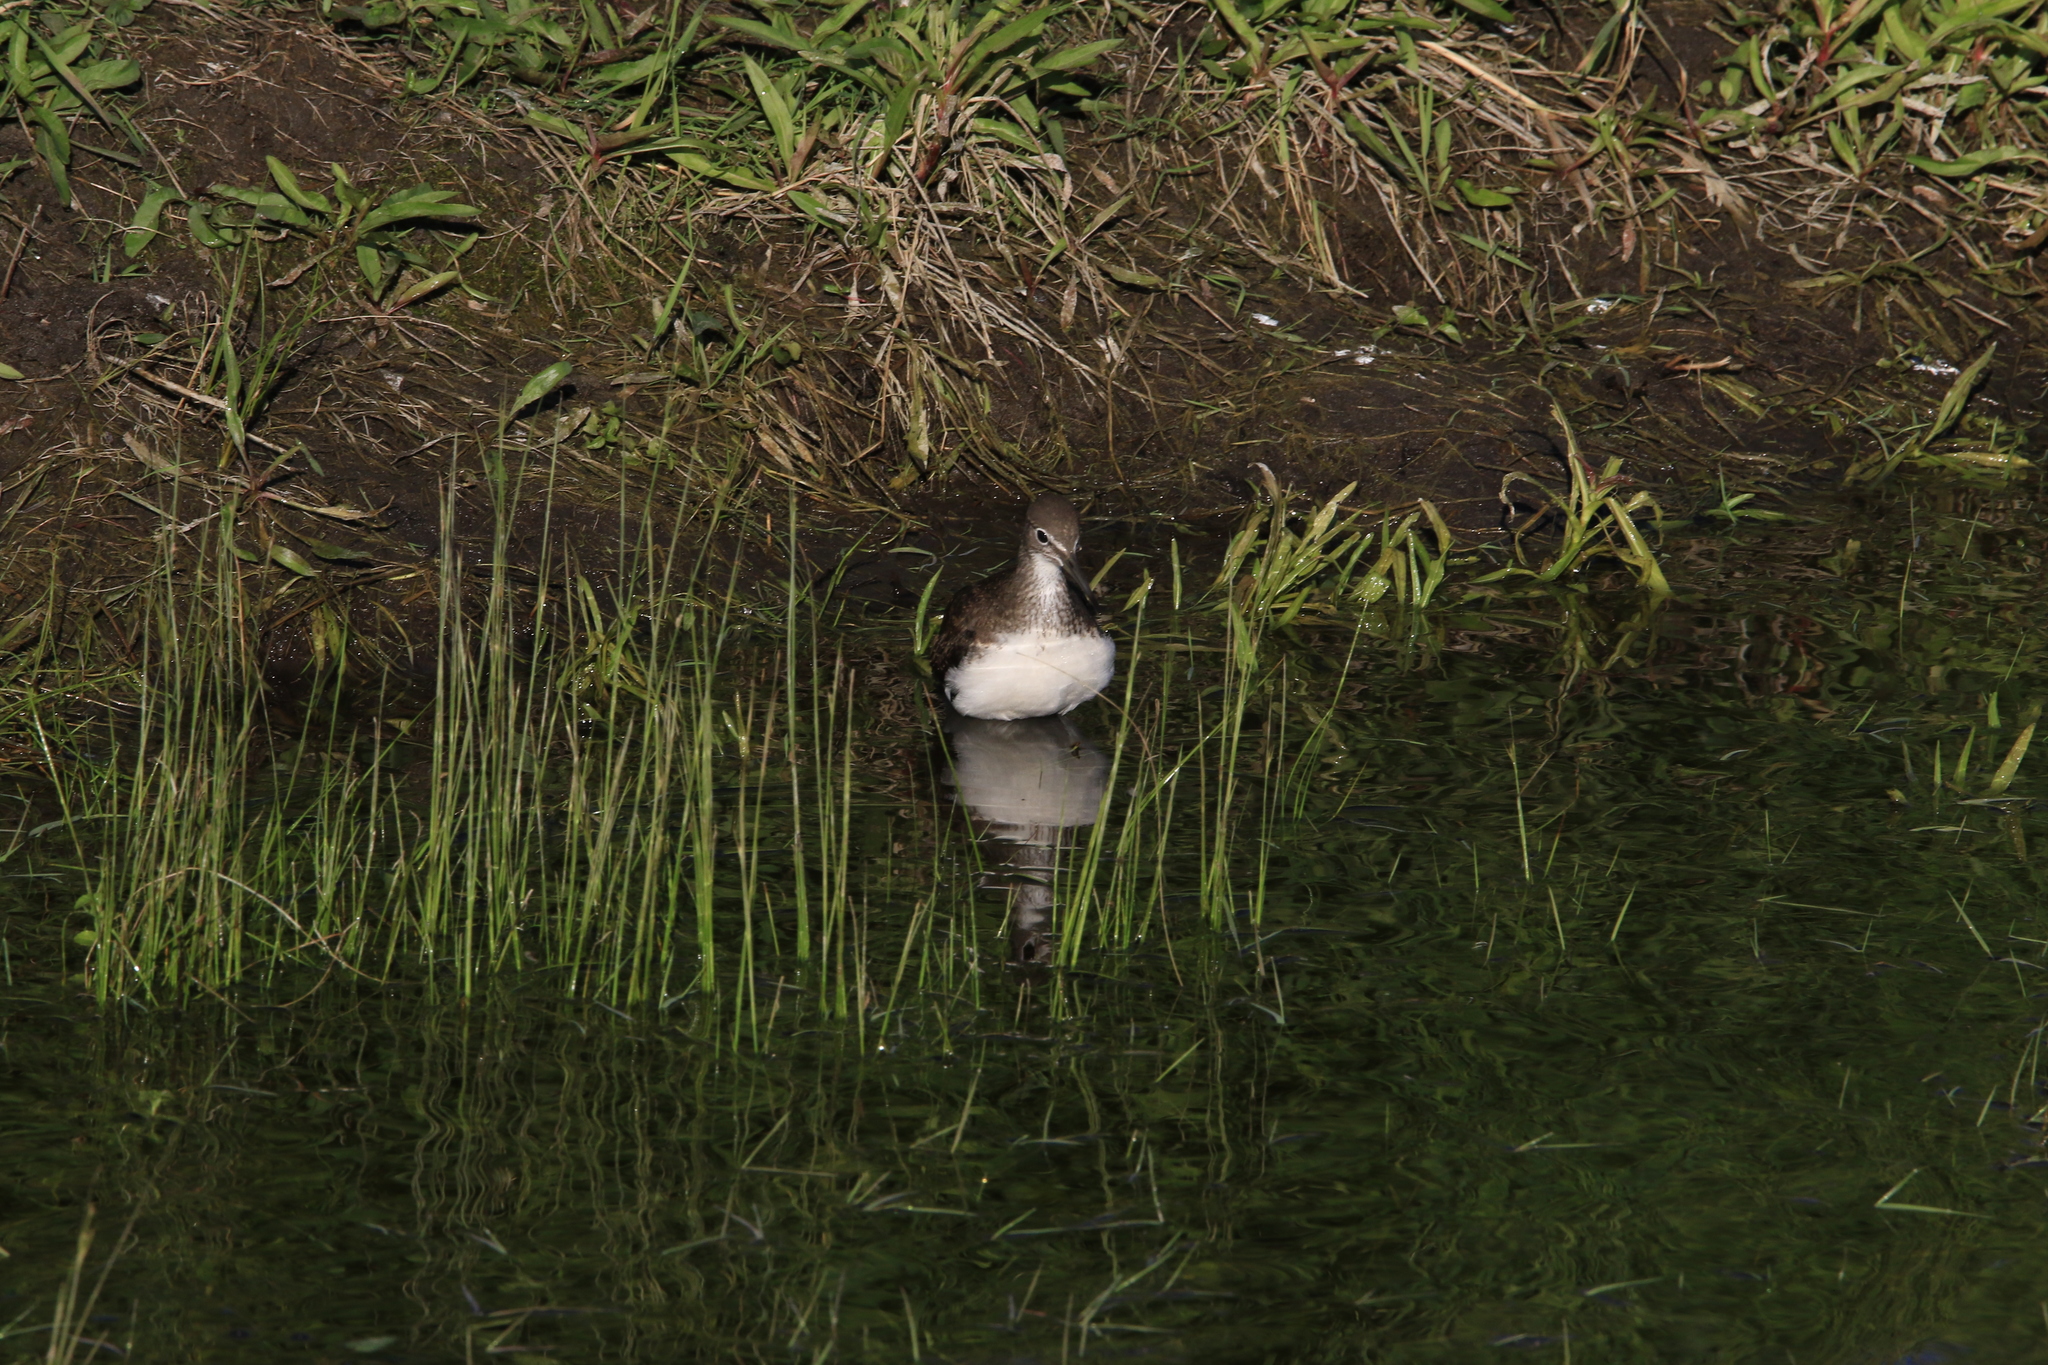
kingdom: Animalia
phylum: Chordata
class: Aves
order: Charadriiformes
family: Scolopacidae
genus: Tringa
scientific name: Tringa ochropus
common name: Green sandpiper
